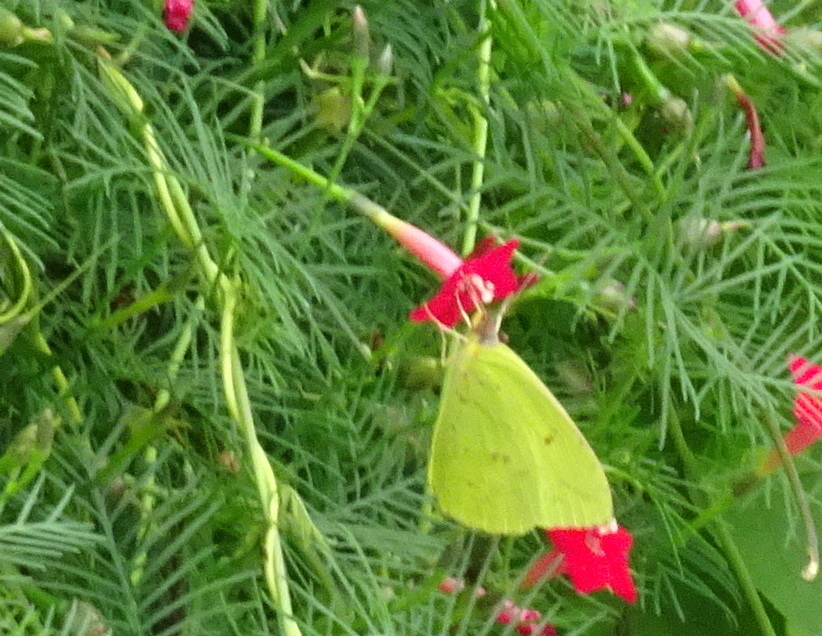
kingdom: Animalia
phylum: Arthropoda
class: Insecta
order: Lepidoptera
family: Pieridae
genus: Phoebis
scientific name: Phoebis sennae
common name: Cloudless sulphur
